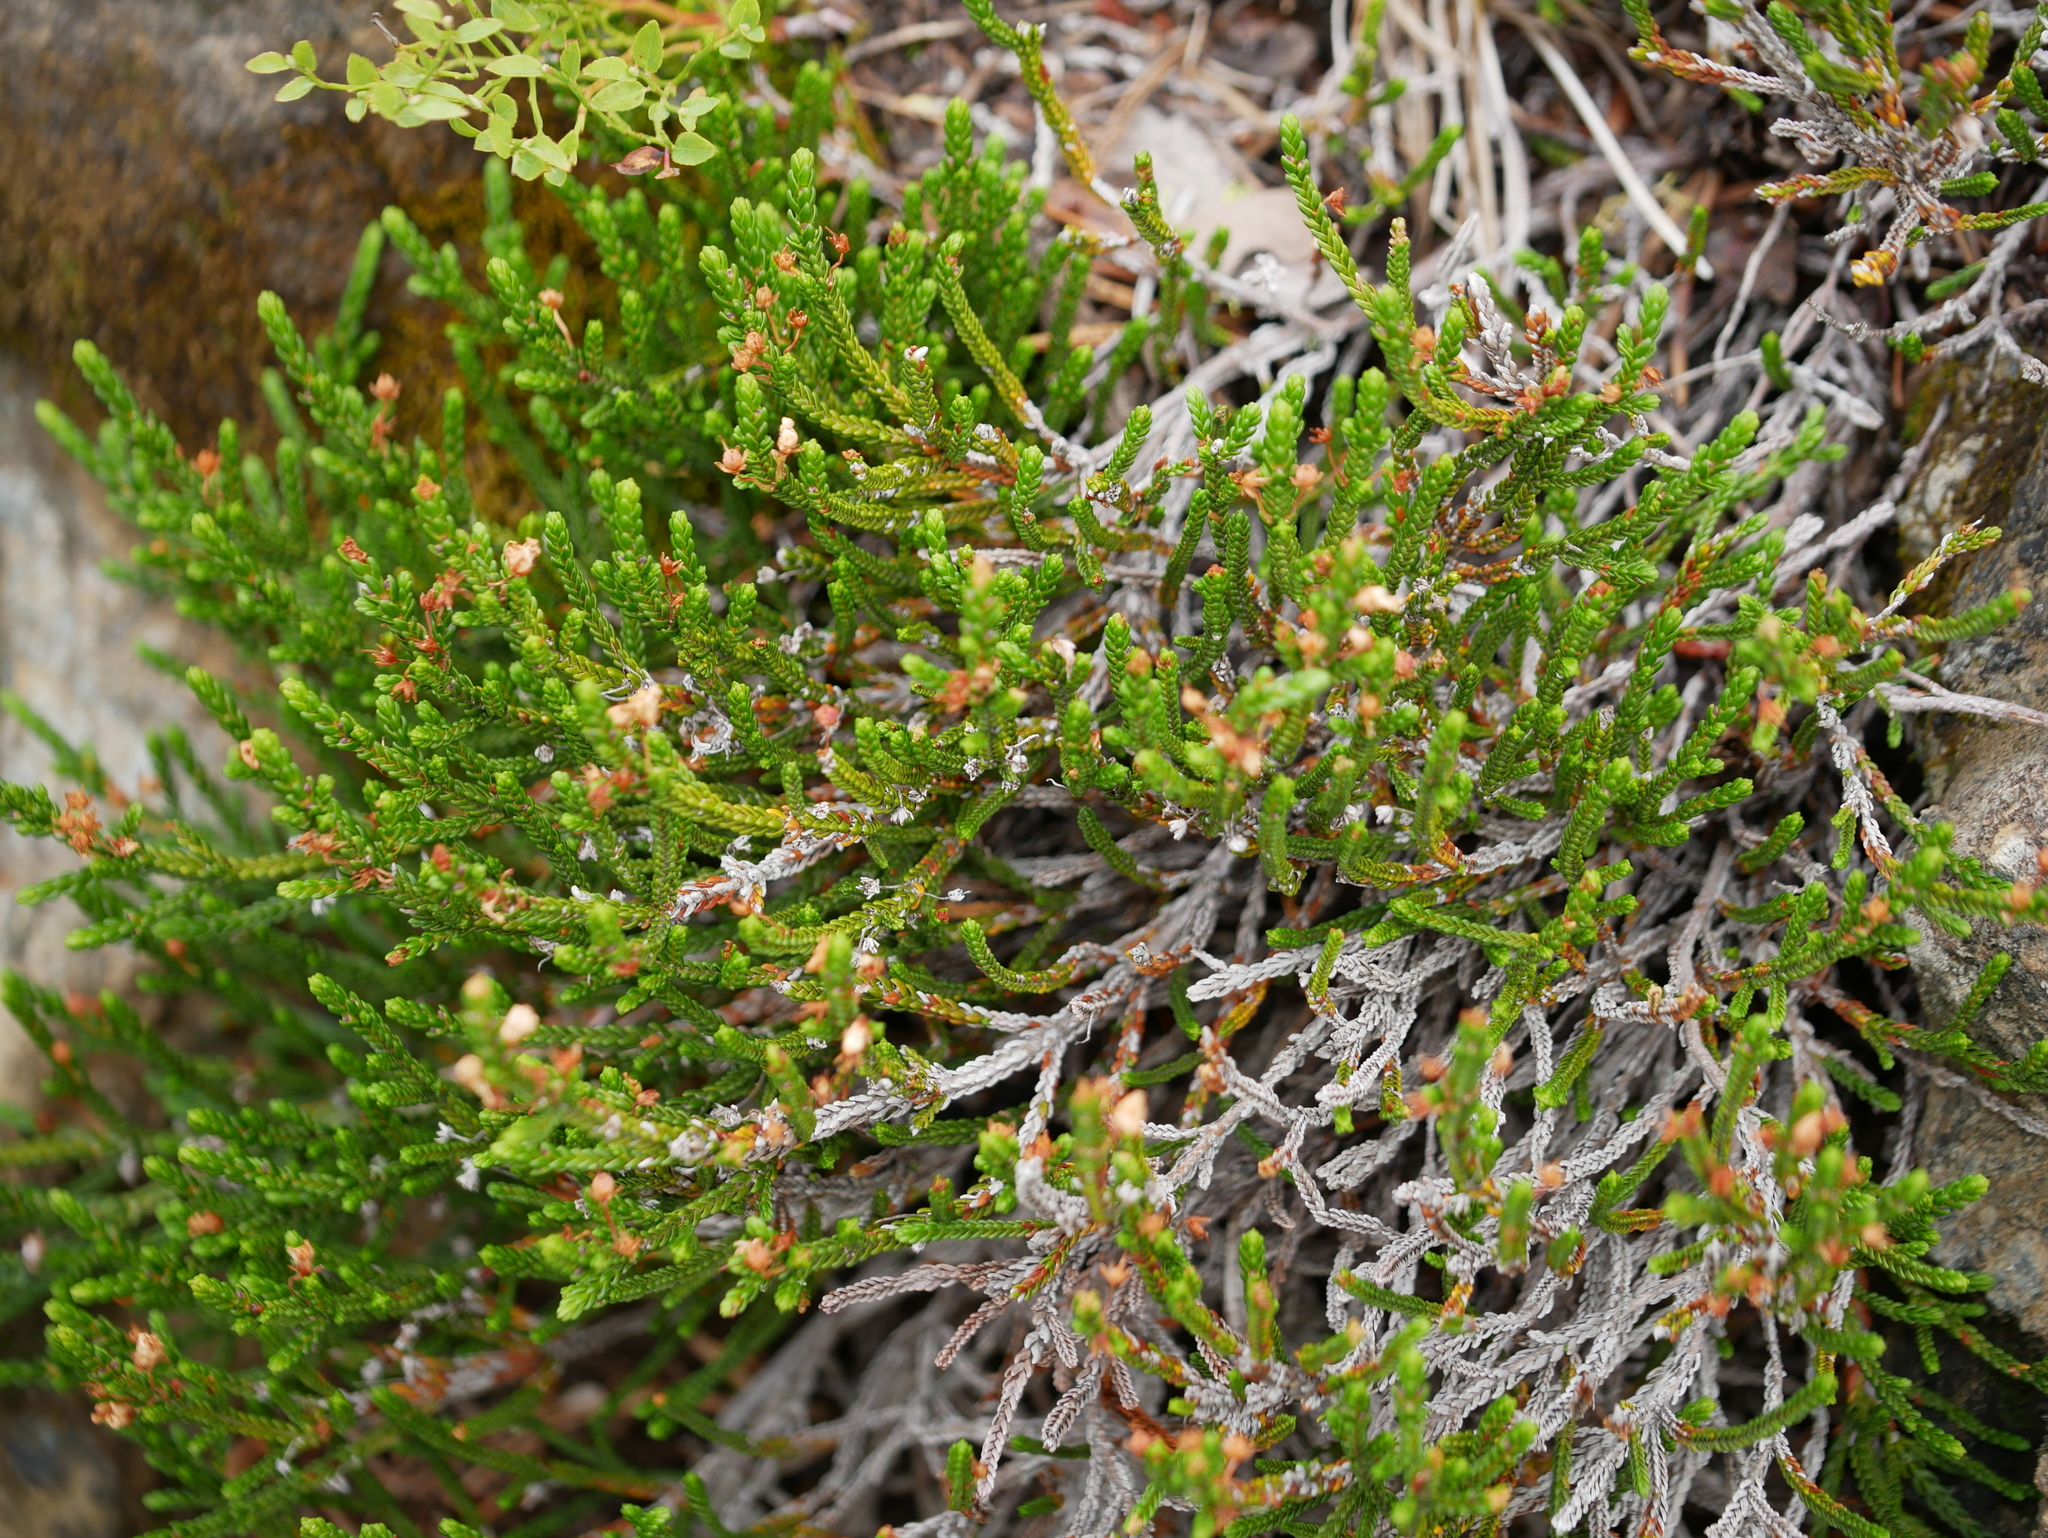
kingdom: Plantae
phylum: Tracheophyta
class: Magnoliopsida
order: Ericales
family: Ericaceae
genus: Cassiope
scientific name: Cassiope mertensiana
